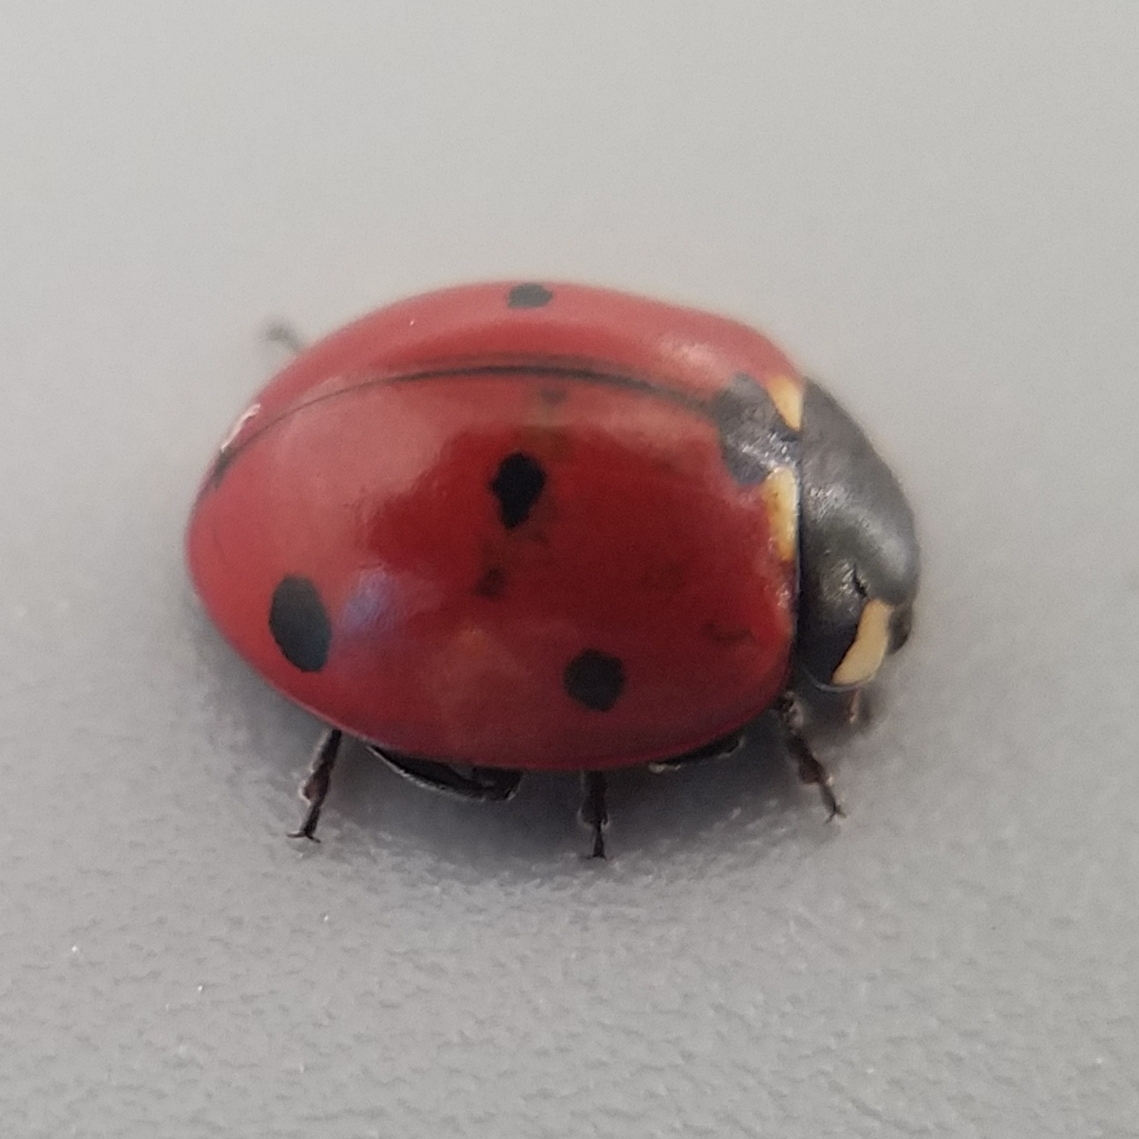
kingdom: Animalia
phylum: Arthropoda
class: Insecta
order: Coleoptera
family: Coccinellidae
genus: Coccinella
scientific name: Coccinella septempunctata
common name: Sevenspotted lady beetle
